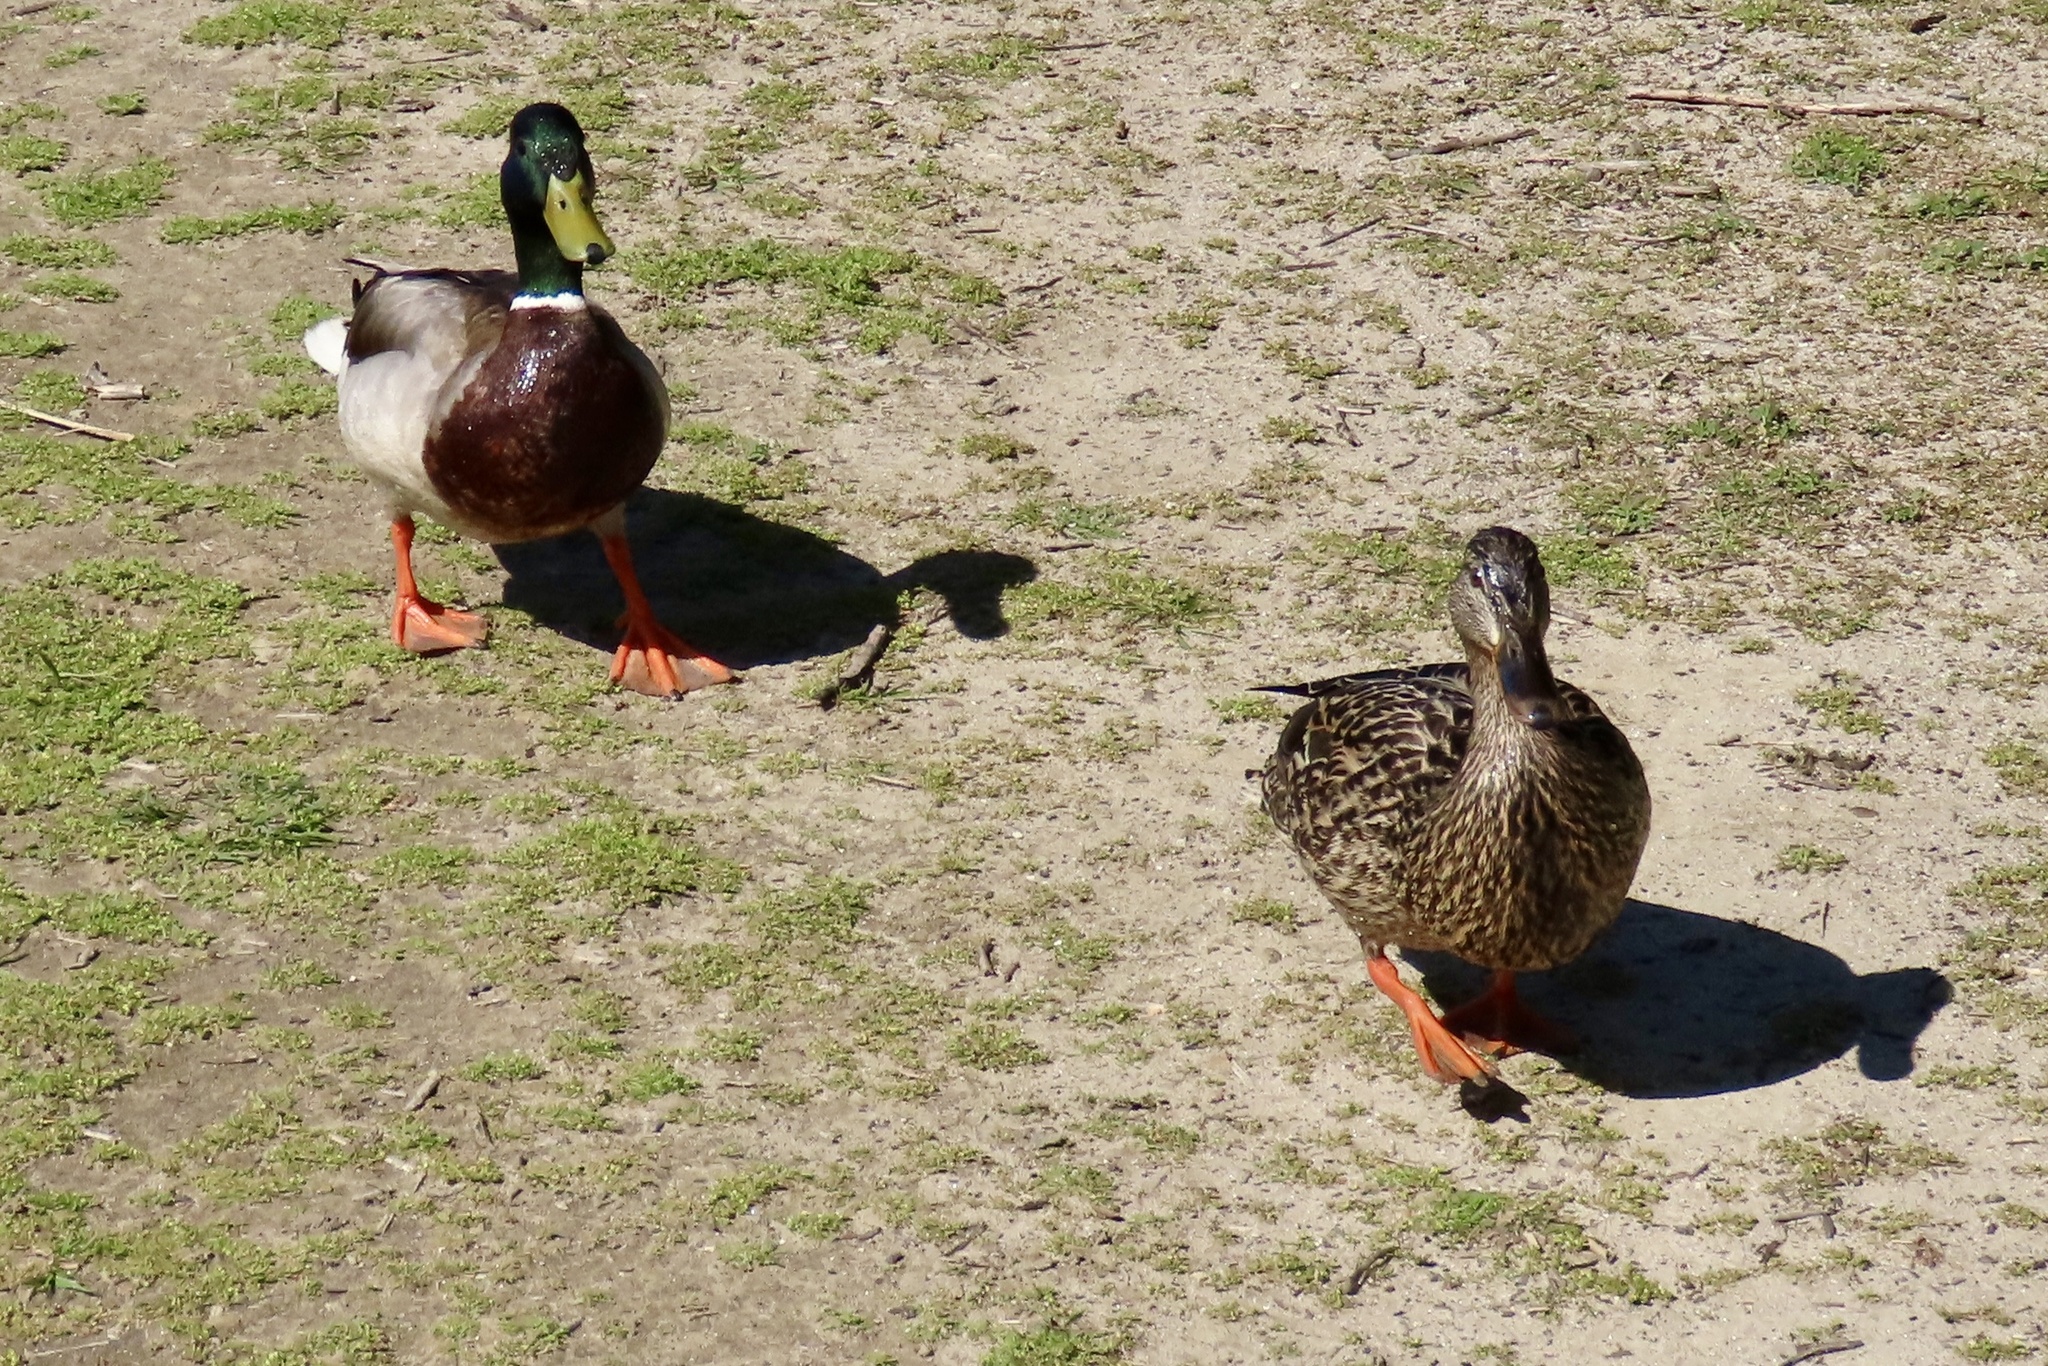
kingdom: Animalia
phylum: Chordata
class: Aves
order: Anseriformes
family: Anatidae
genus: Anas
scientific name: Anas platyrhynchos
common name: Mallard
